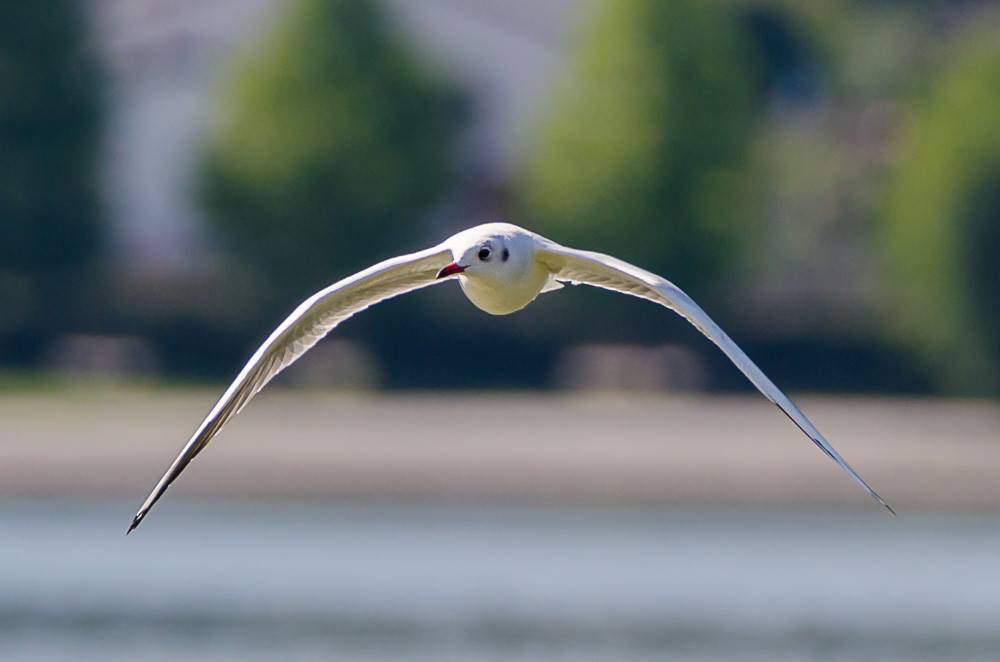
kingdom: Animalia
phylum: Chordata
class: Aves
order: Charadriiformes
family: Laridae
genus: Chroicocephalus
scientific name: Chroicocephalus ridibundus
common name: Black-headed gull
